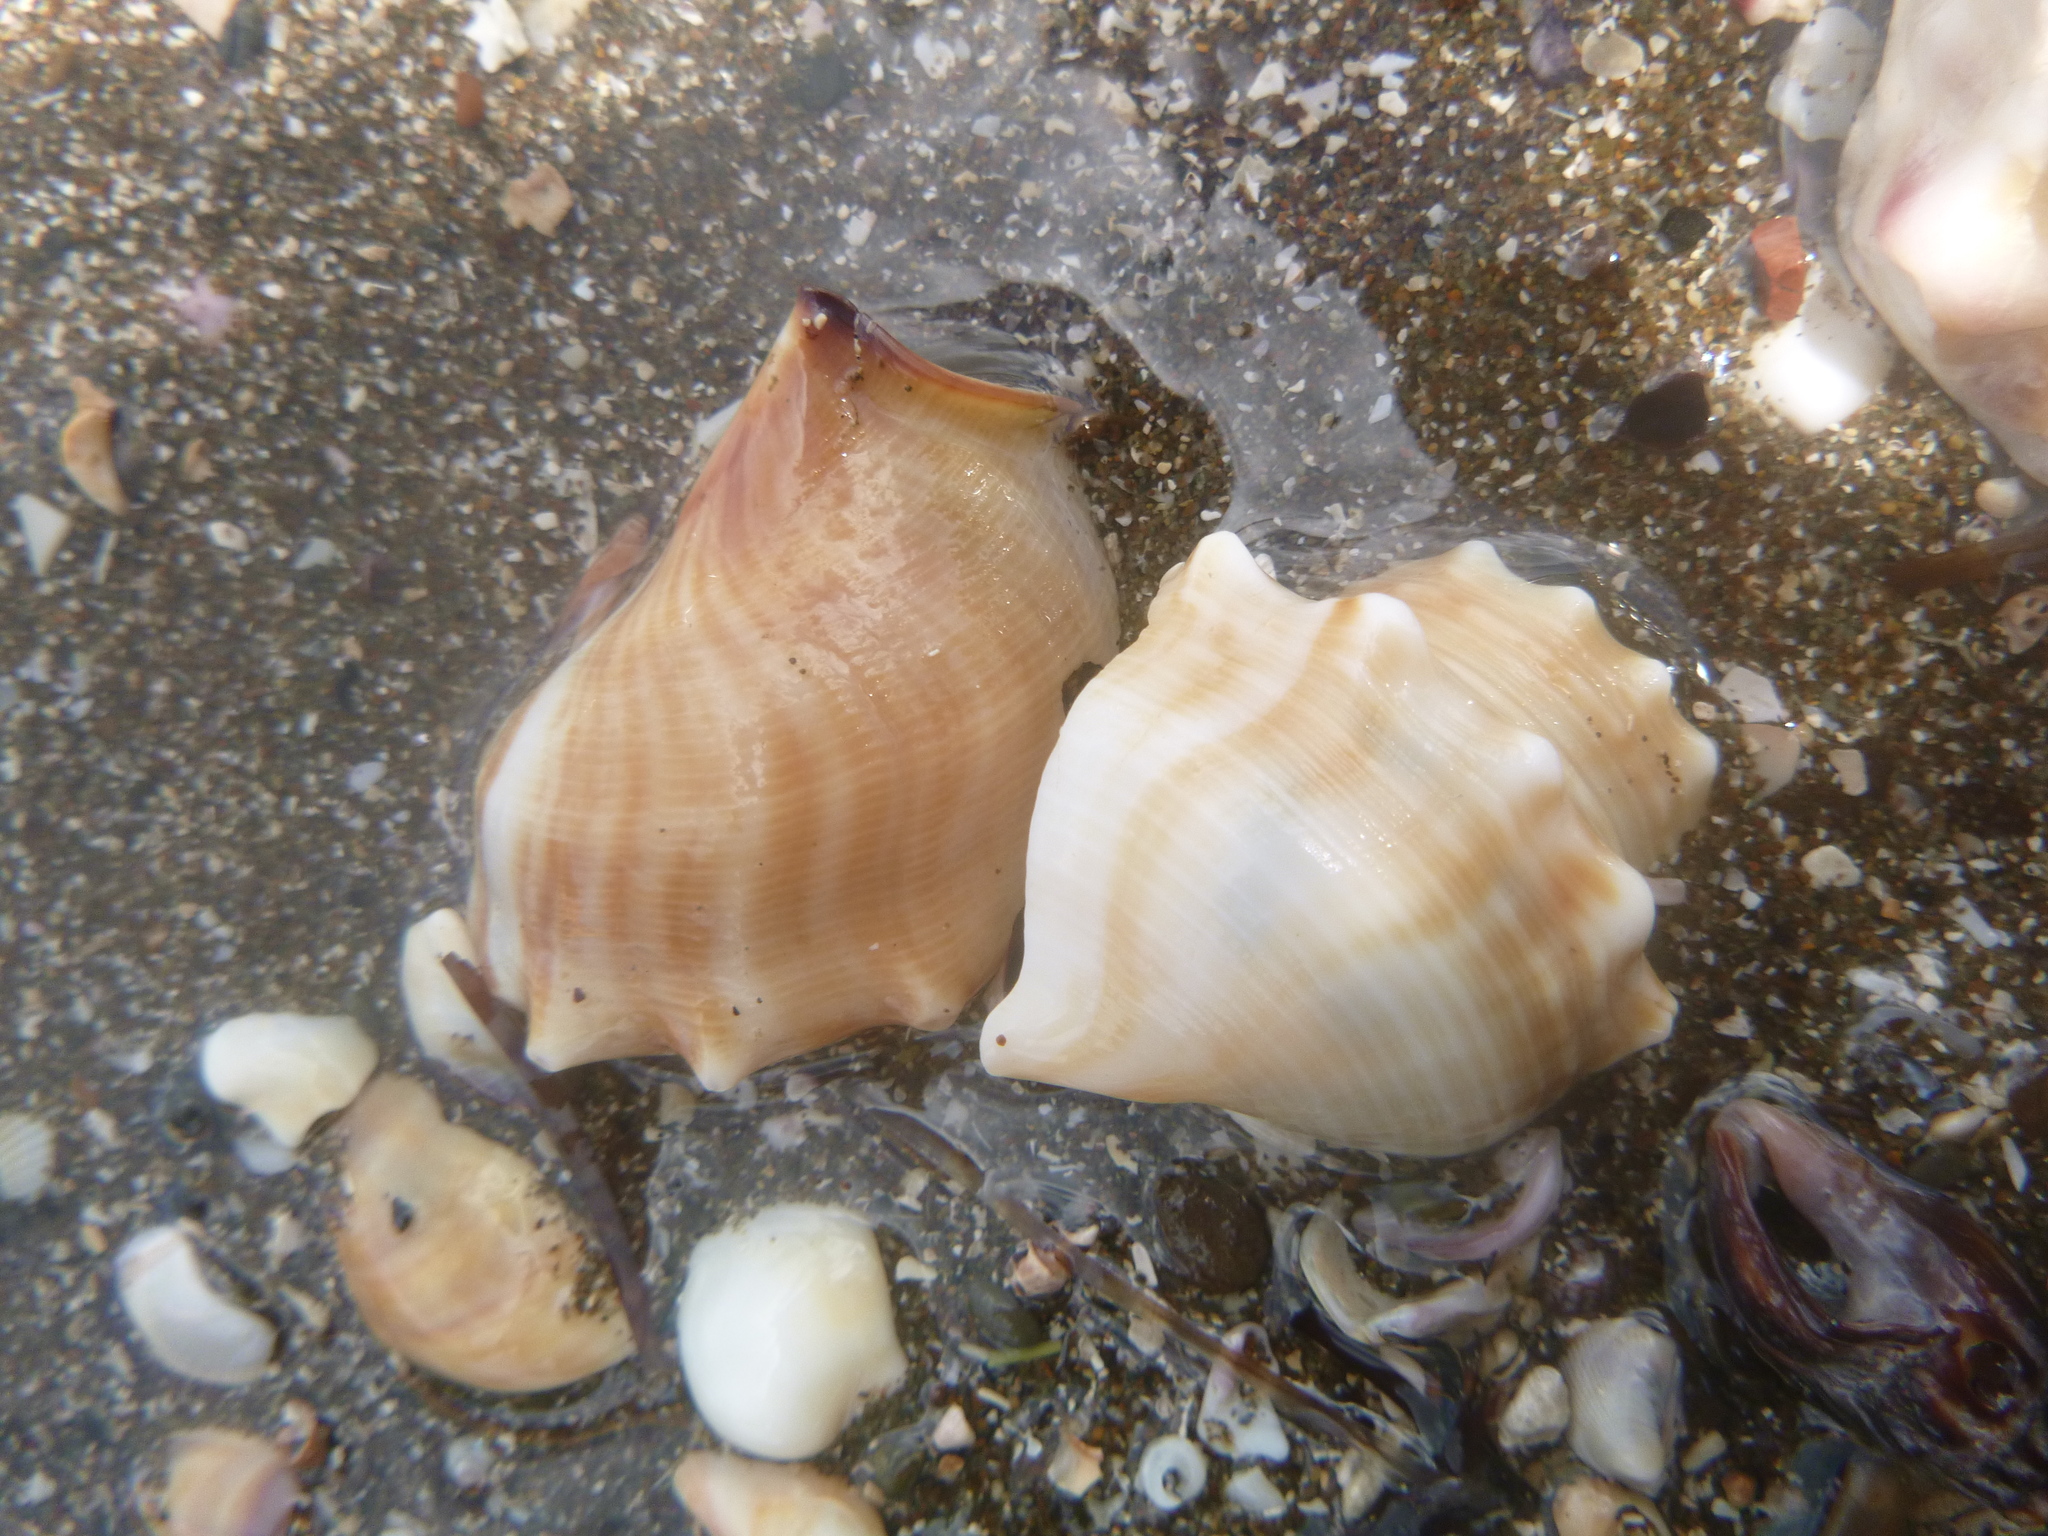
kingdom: Animalia
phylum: Mollusca
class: Gastropoda
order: Littorinimorpha
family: Struthiolariidae
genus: Struthiolaria
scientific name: Struthiolaria papulosa
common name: Large ostrich foot
